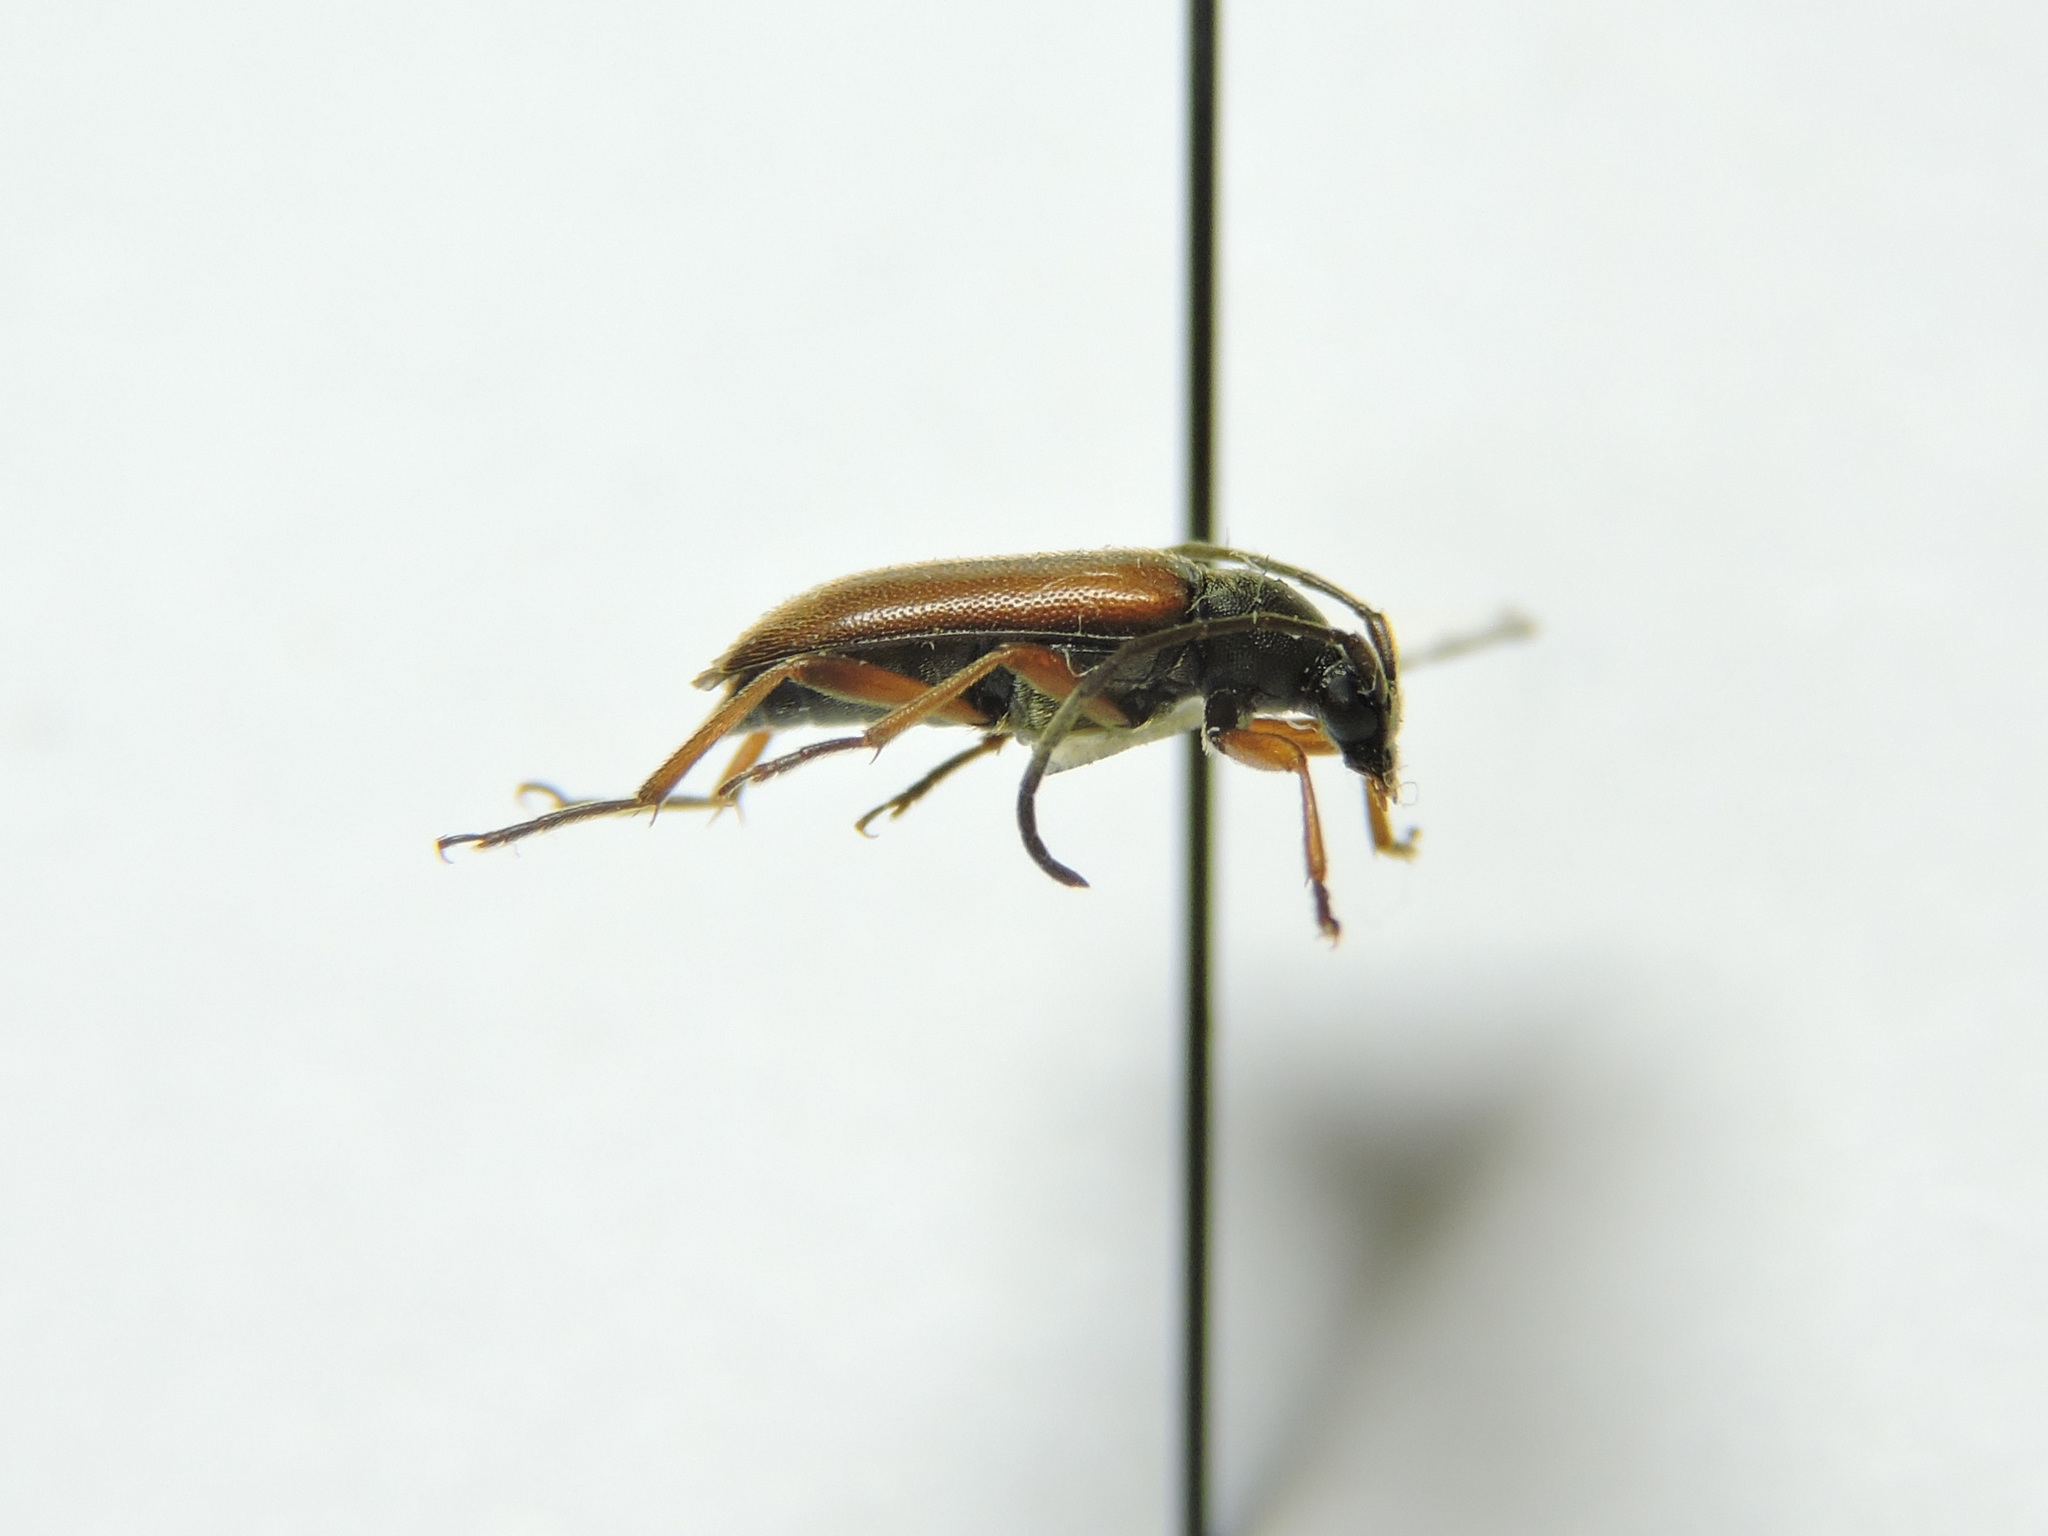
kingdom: Animalia
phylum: Arthropoda
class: Insecta
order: Coleoptera
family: Cerambycidae
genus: Alosterna
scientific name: Alosterna tabacicolor
